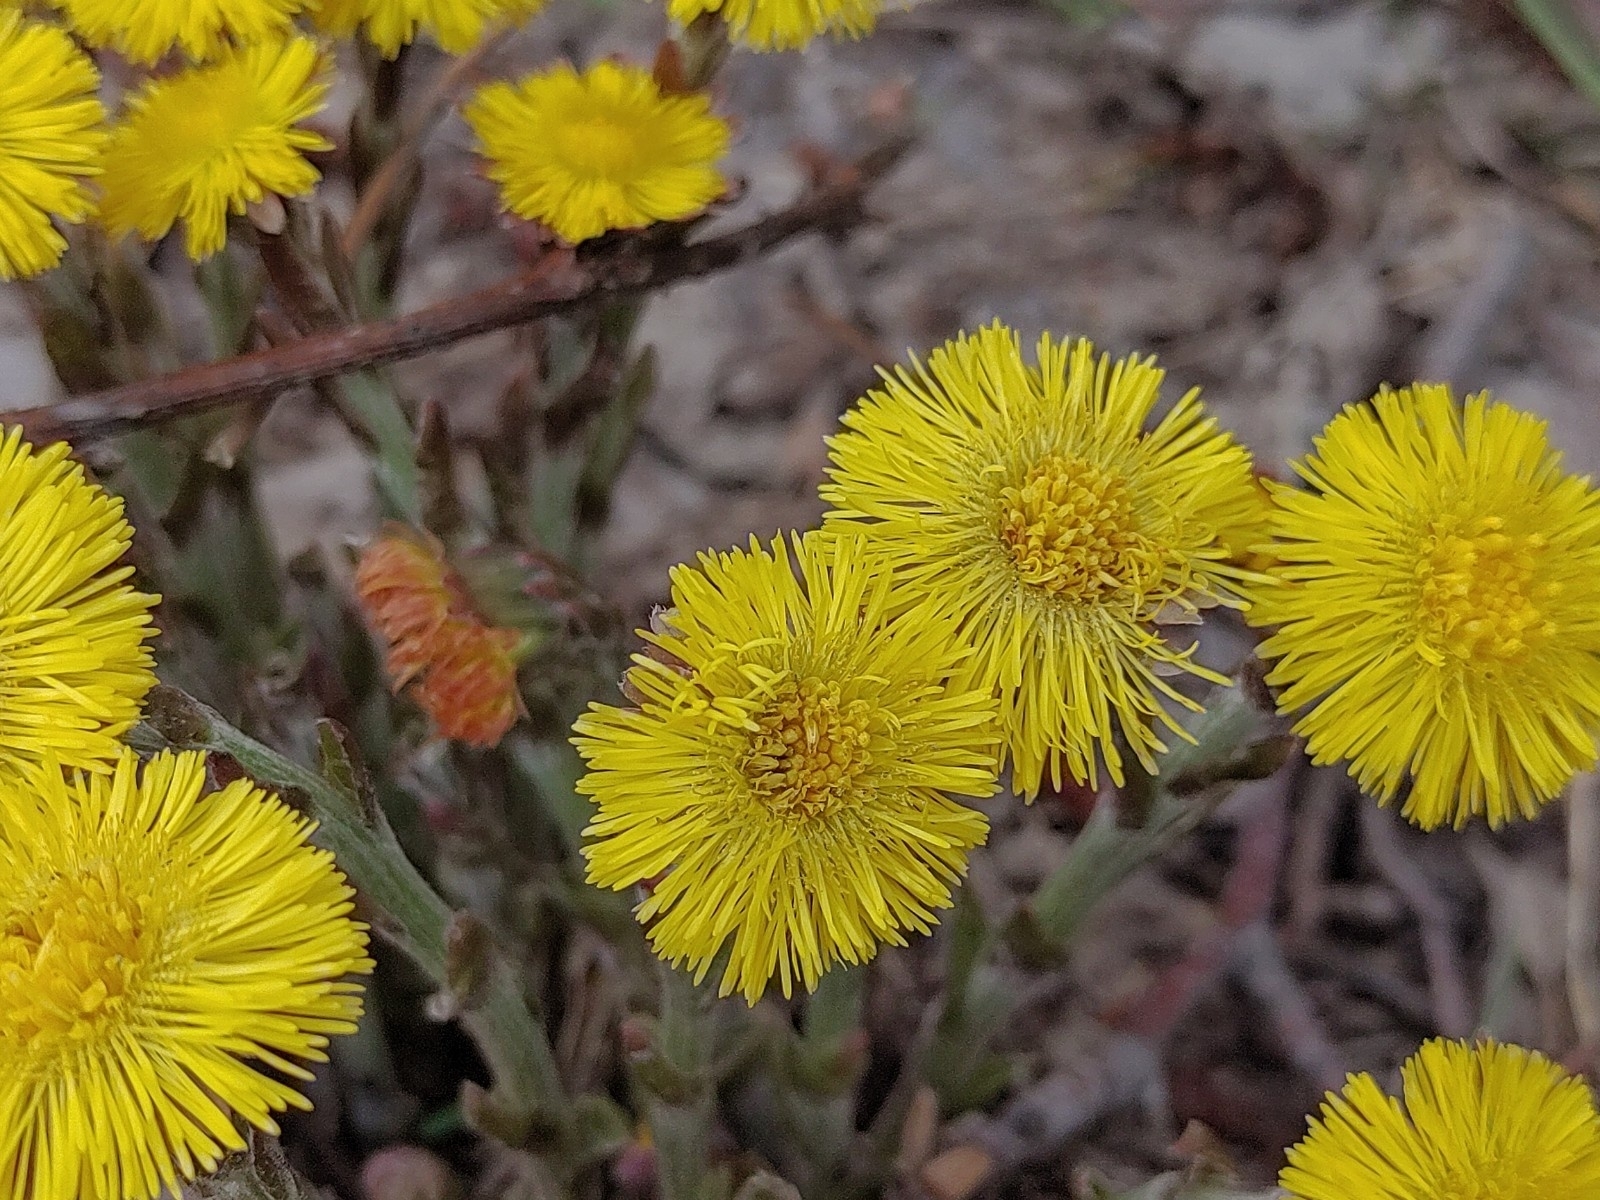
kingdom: Plantae
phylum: Tracheophyta
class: Magnoliopsida
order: Asterales
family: Asteraceae
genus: Tussilago
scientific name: Tussilago farfara
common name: Coltsfoot
